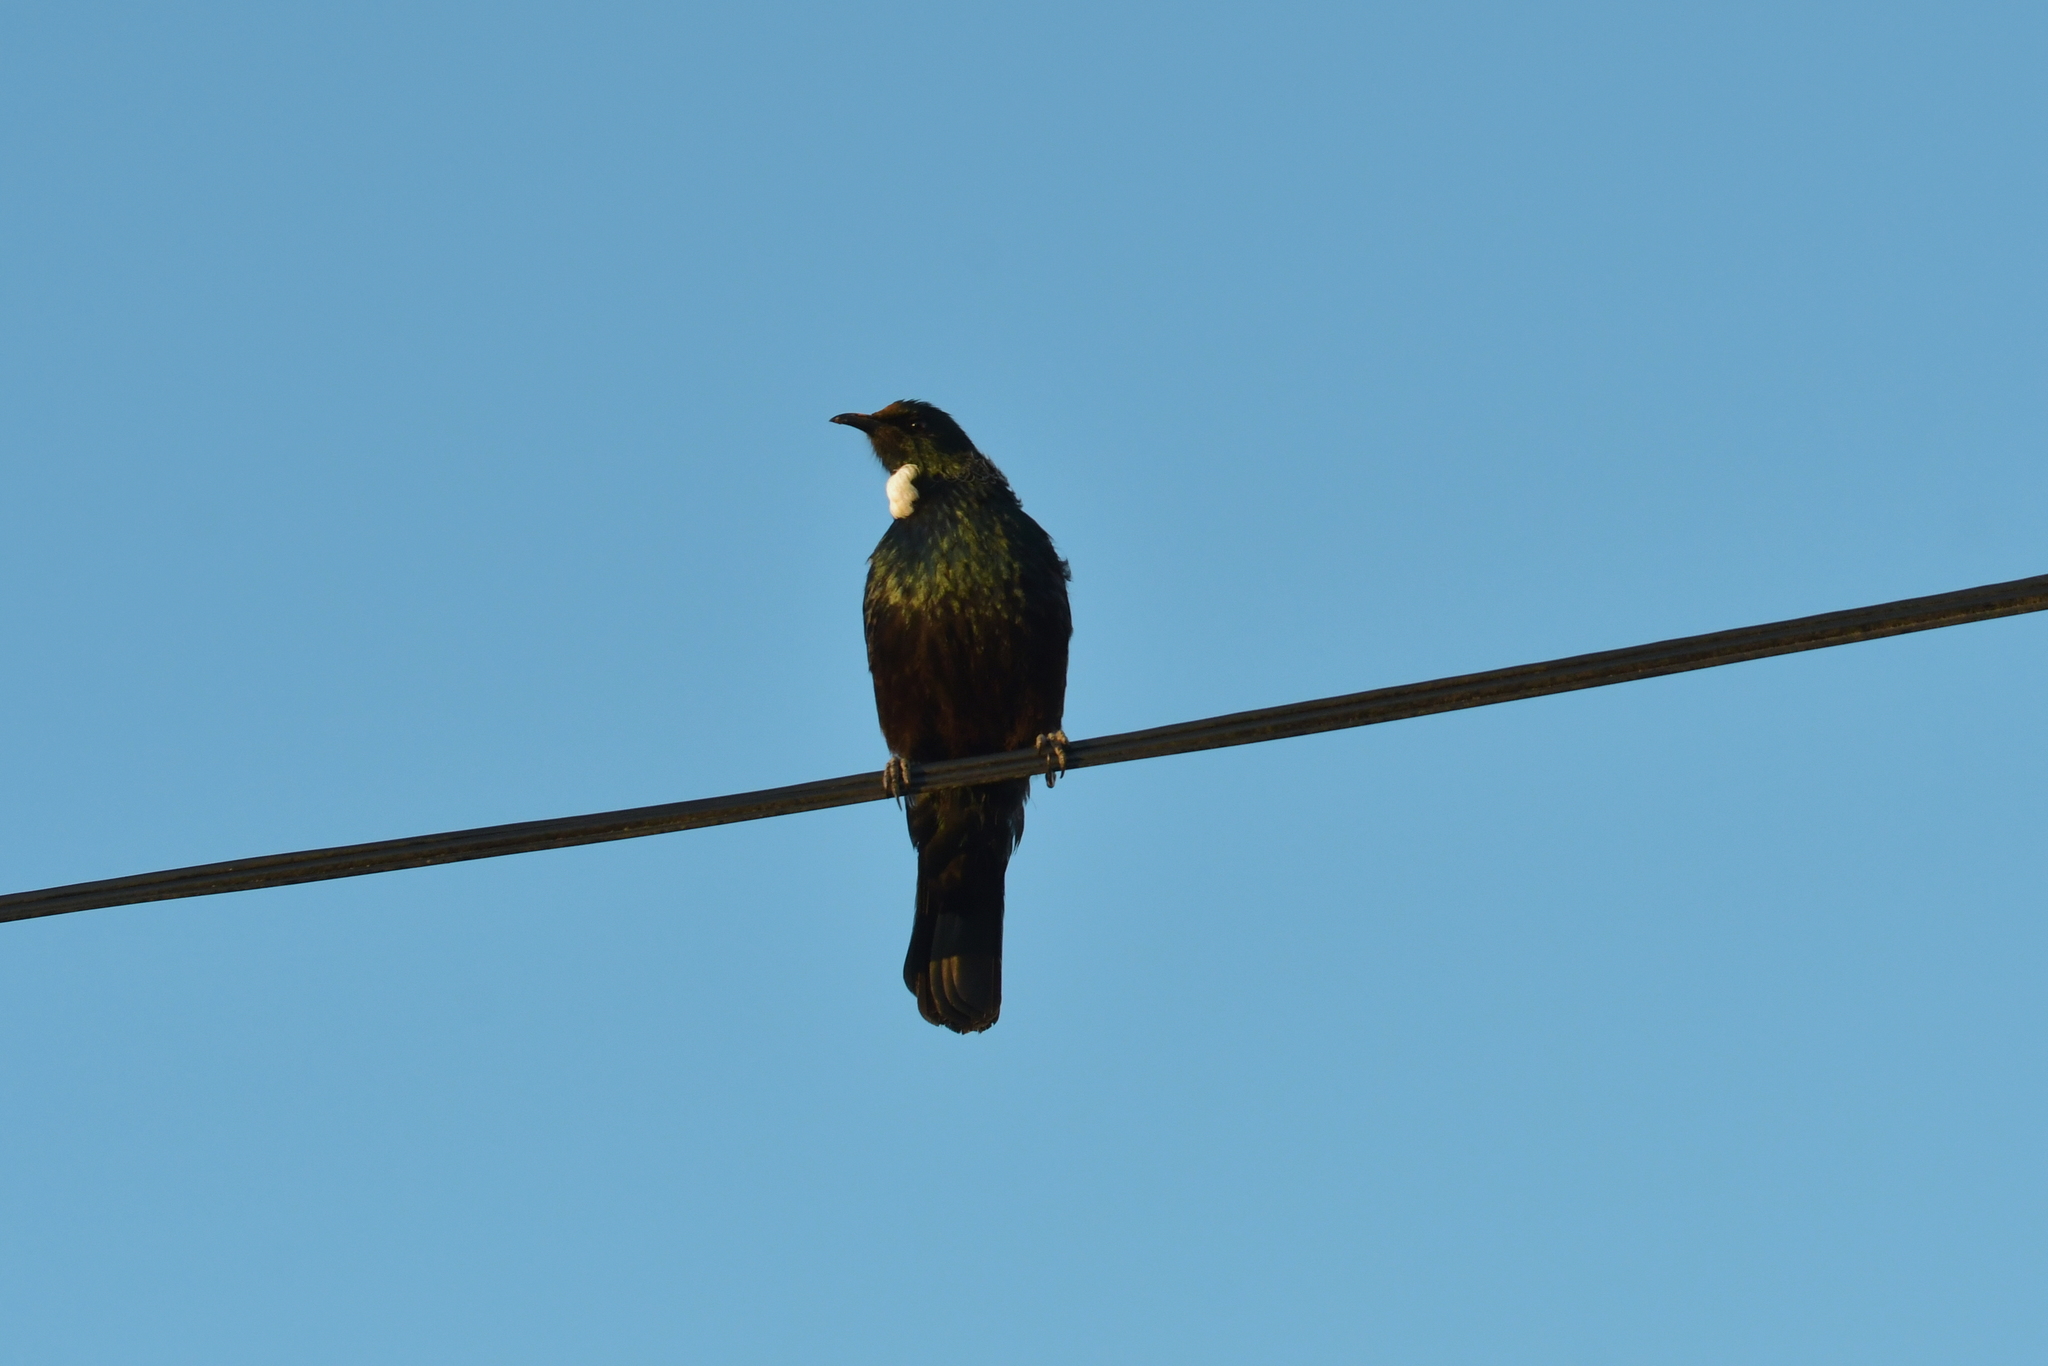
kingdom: Animalia
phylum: Chordata
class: Aves
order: Passeriformes
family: Meliphagidae
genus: Prosthemadera
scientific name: Prosthemadera novaeseelandiae
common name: Tui
